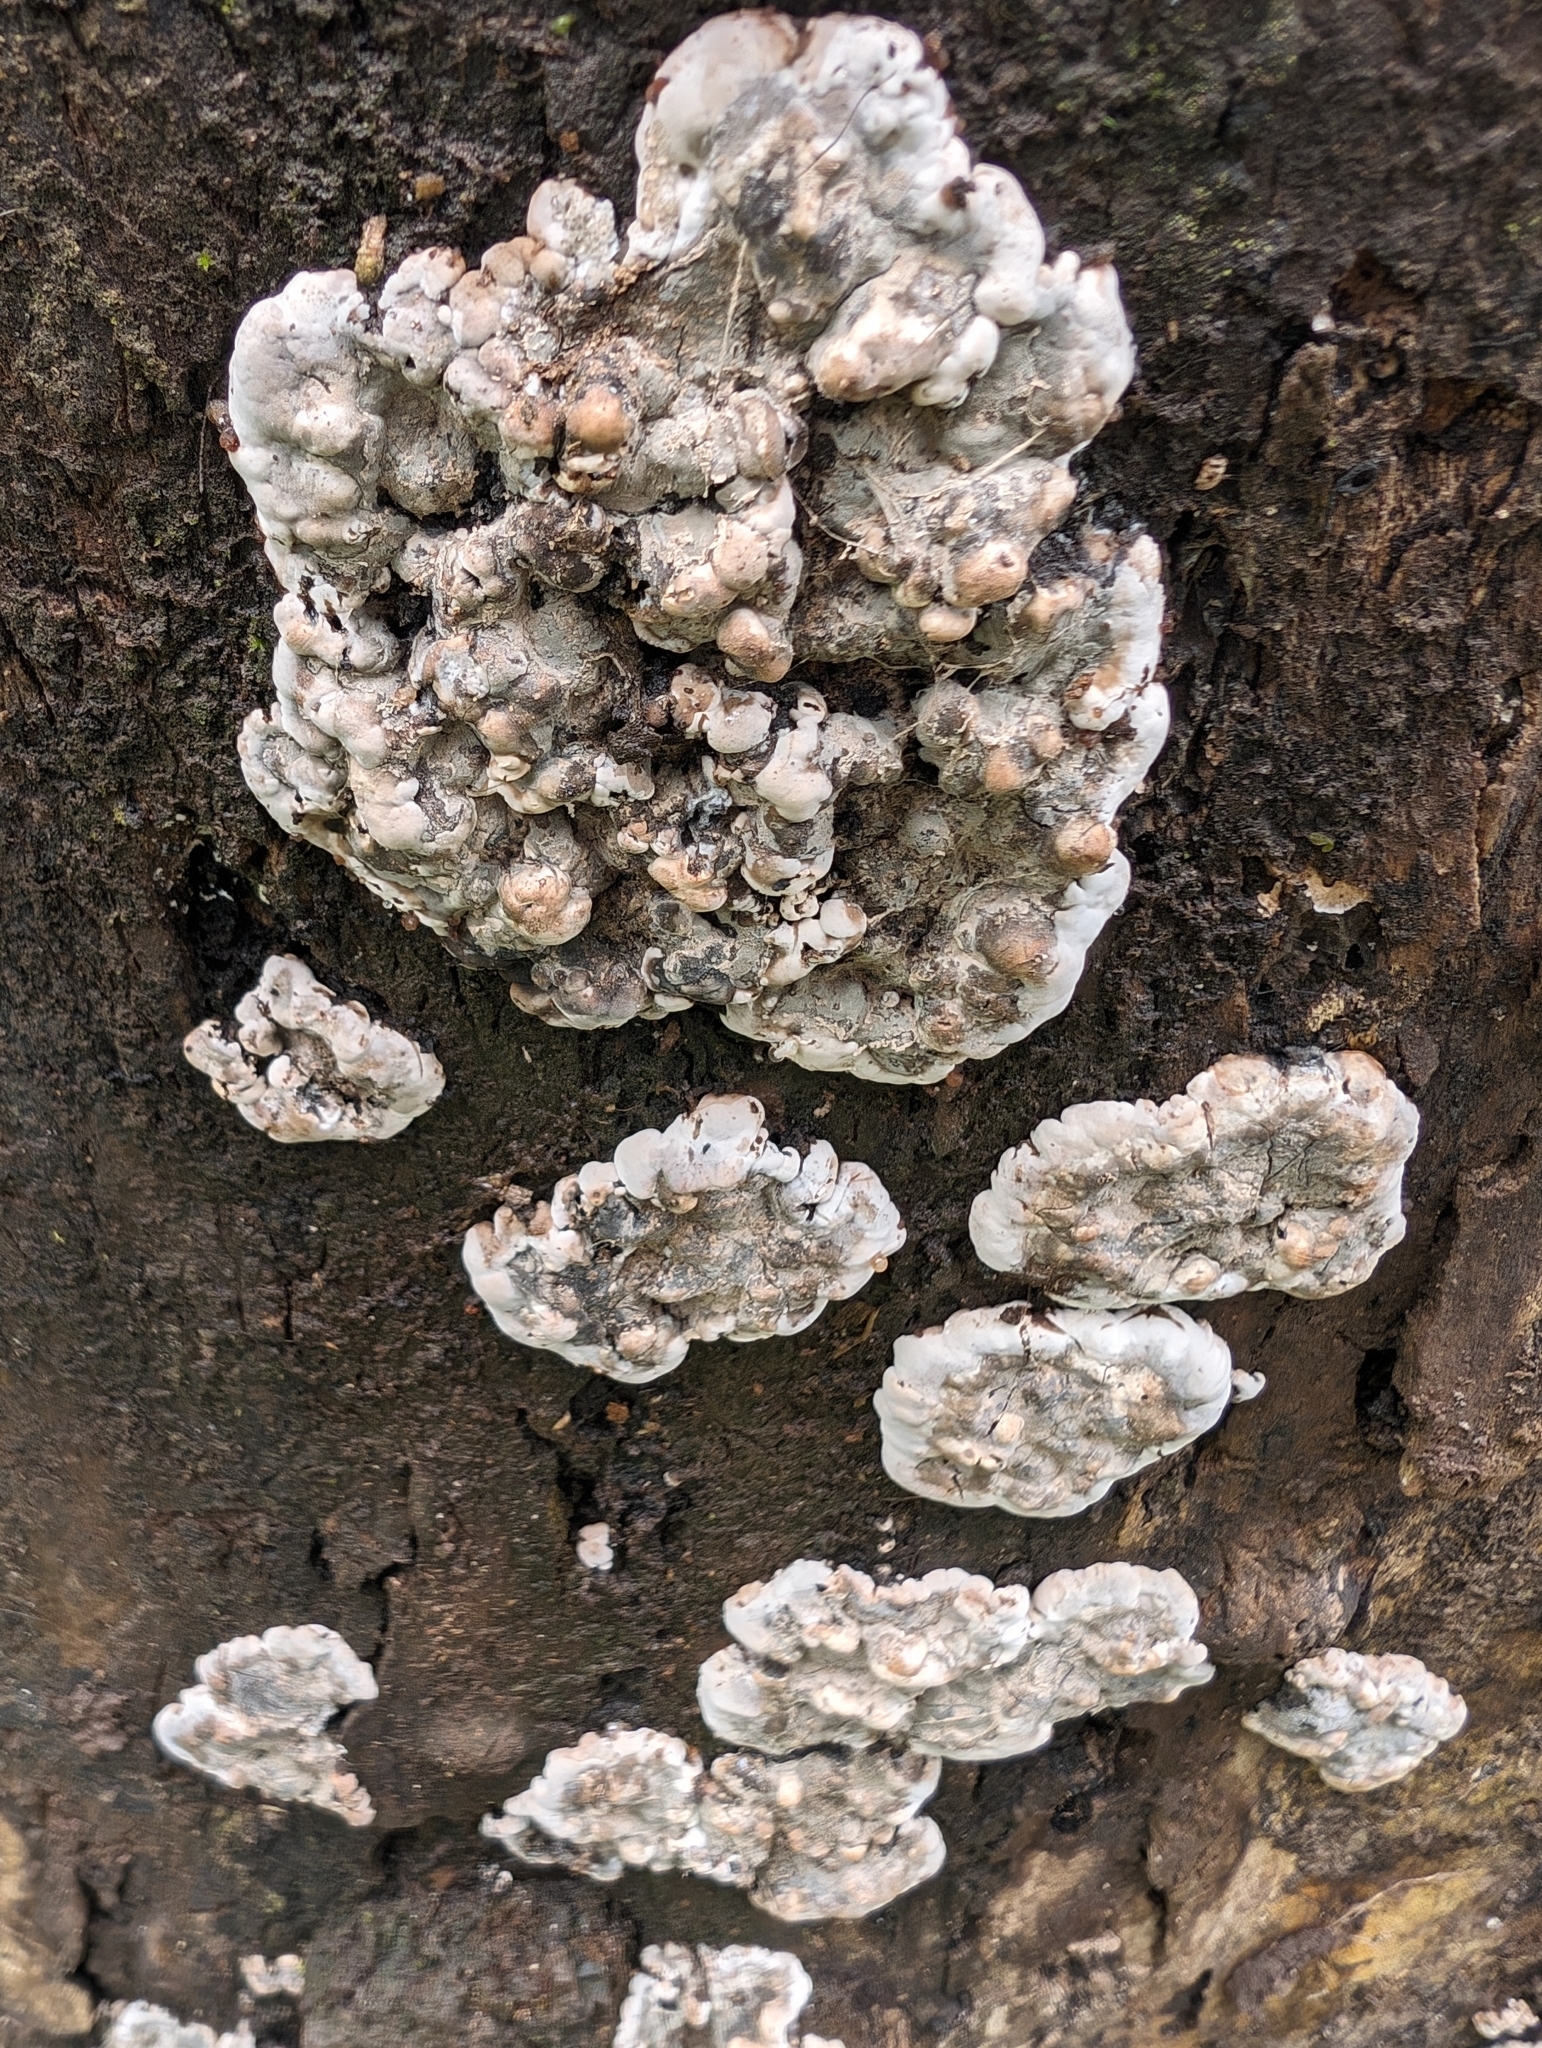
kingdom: Fungi
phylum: Ascomycota
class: Sordariomycetes
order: Xylariales
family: Xylariaceae
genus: Kretzschmaria
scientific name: Kretzschmaria deusta
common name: Brittle cinder
